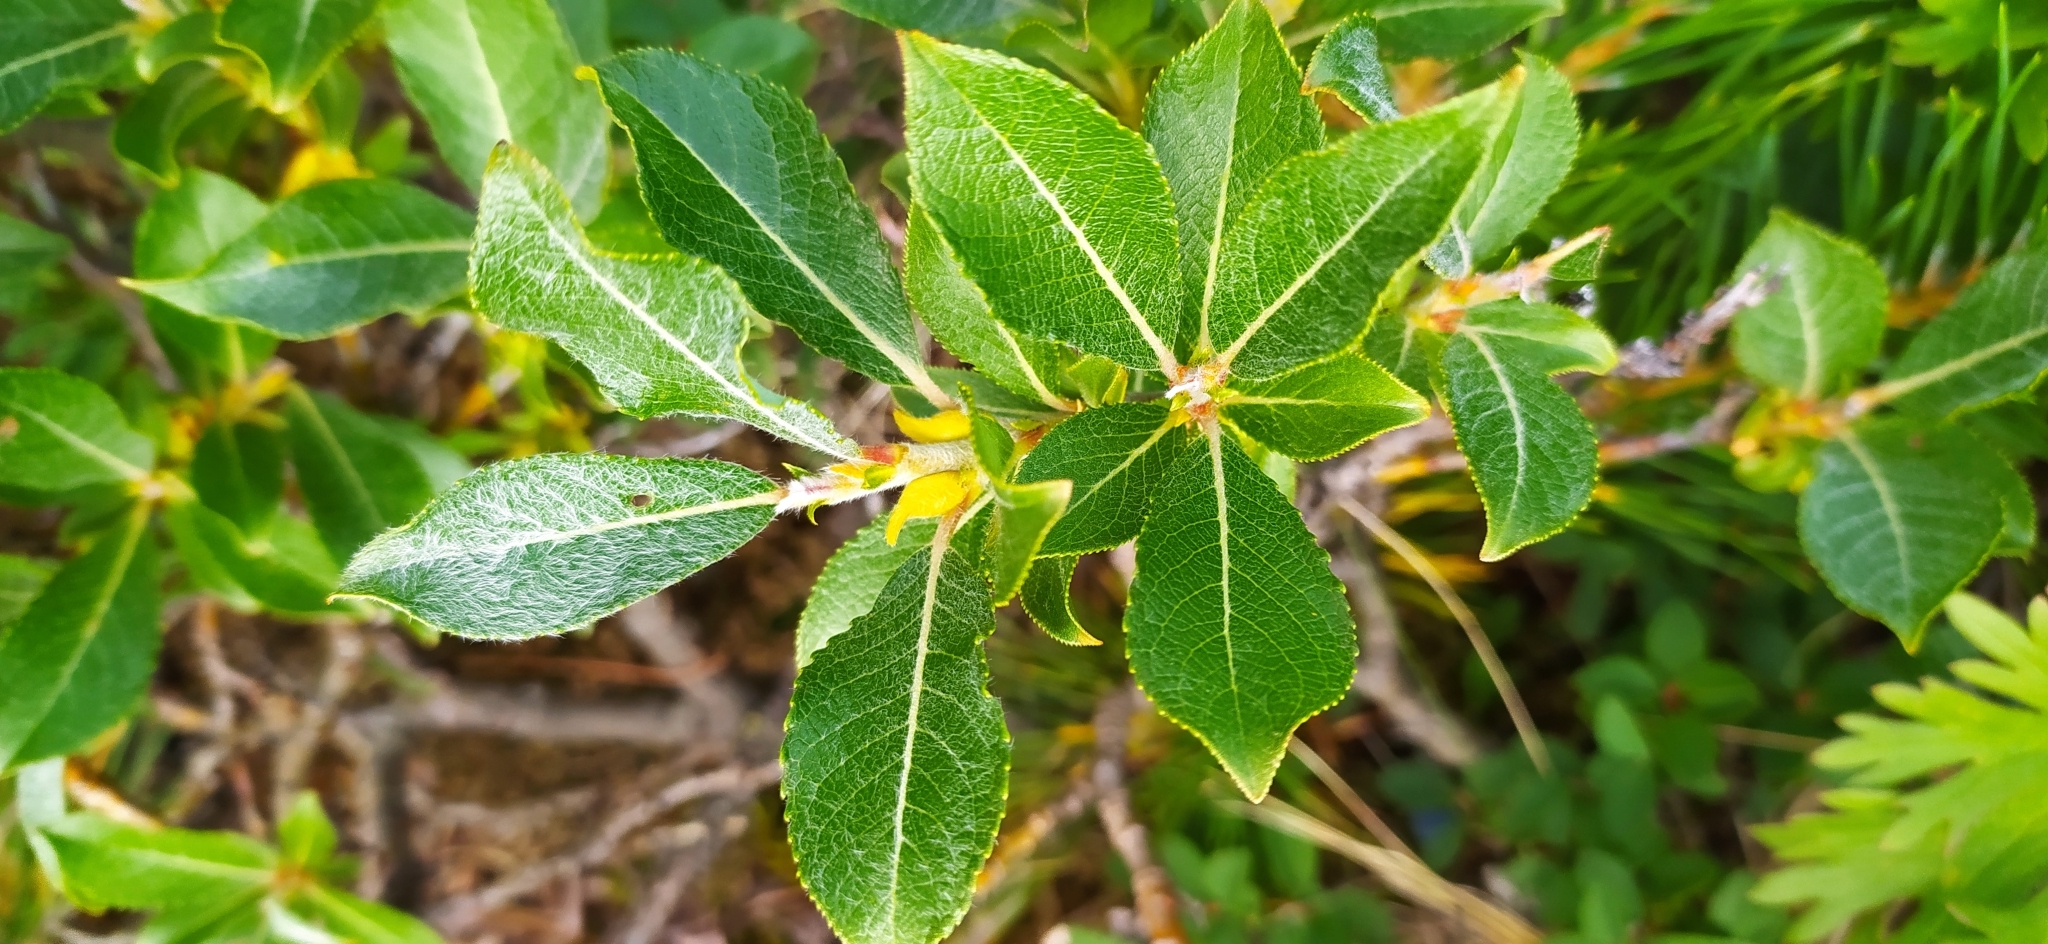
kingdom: Plantae
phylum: Tracheophyta
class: Magnoliopsida
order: Malpighiales
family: Salicaceae
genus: Salix
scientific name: Salix recurvigemmata
